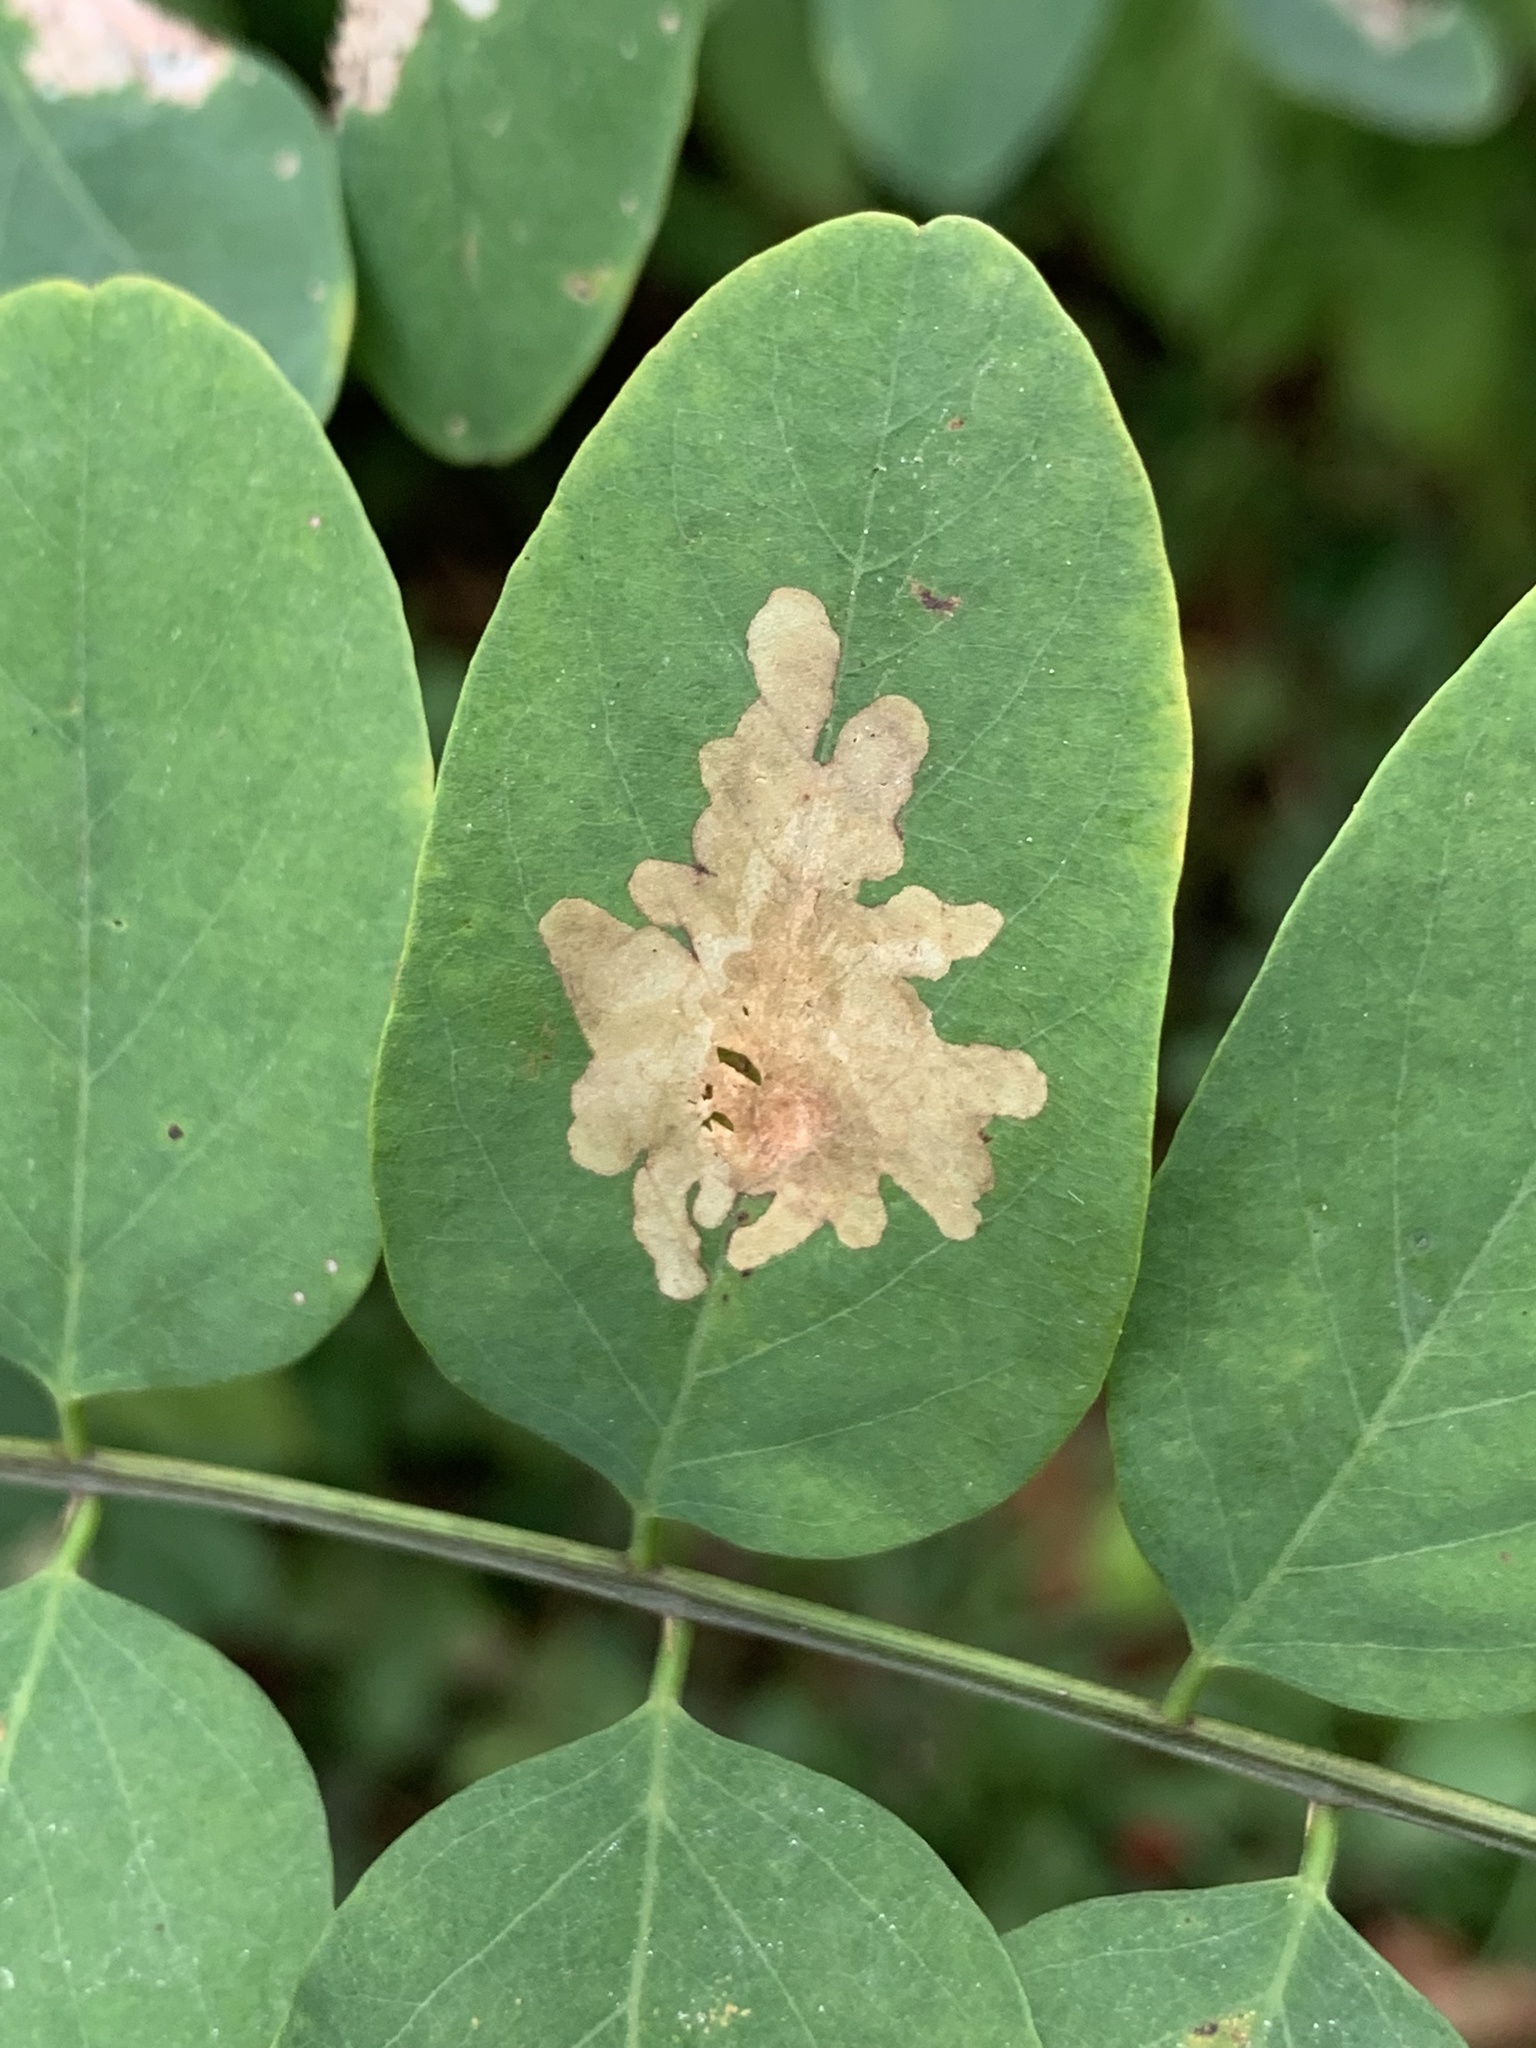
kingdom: Animalia
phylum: Arthropoda
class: Insecta
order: Lepidoptera
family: Gracillariidae
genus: Parectopa
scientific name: Parectopa robiniella
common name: Locust digitate leafminer
